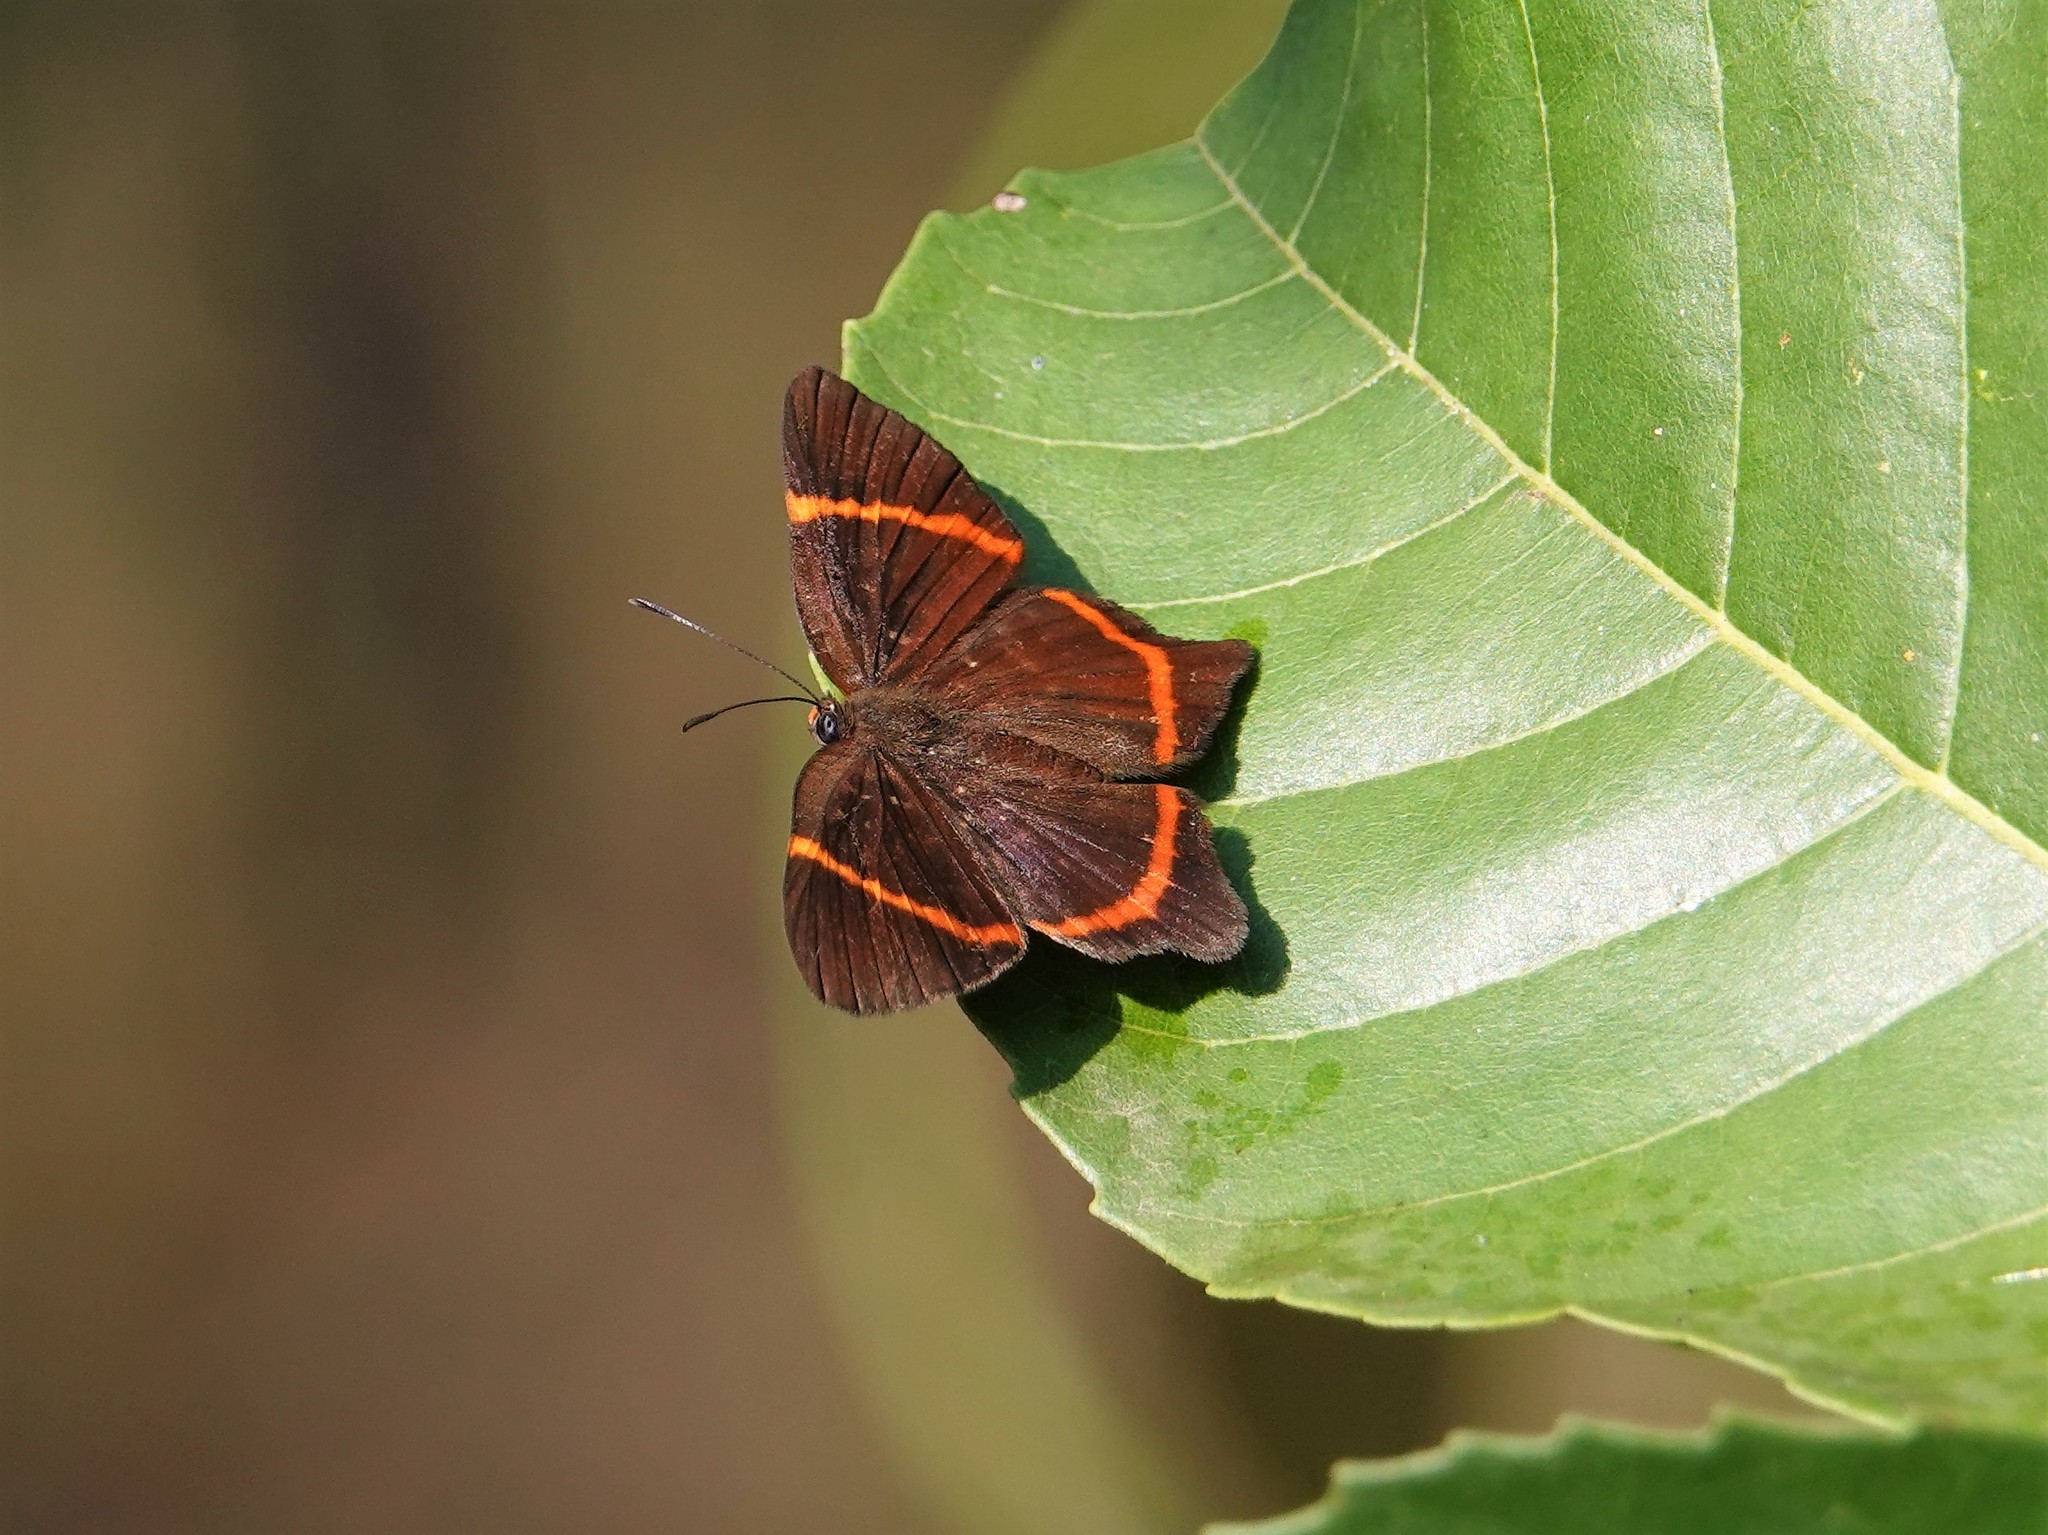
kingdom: Animalia
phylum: Arthropoda
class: Insecta
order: Lepidoptera
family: Riodinidae
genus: Riodina
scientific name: Riodina lysippus
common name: Lysippus metalmark
